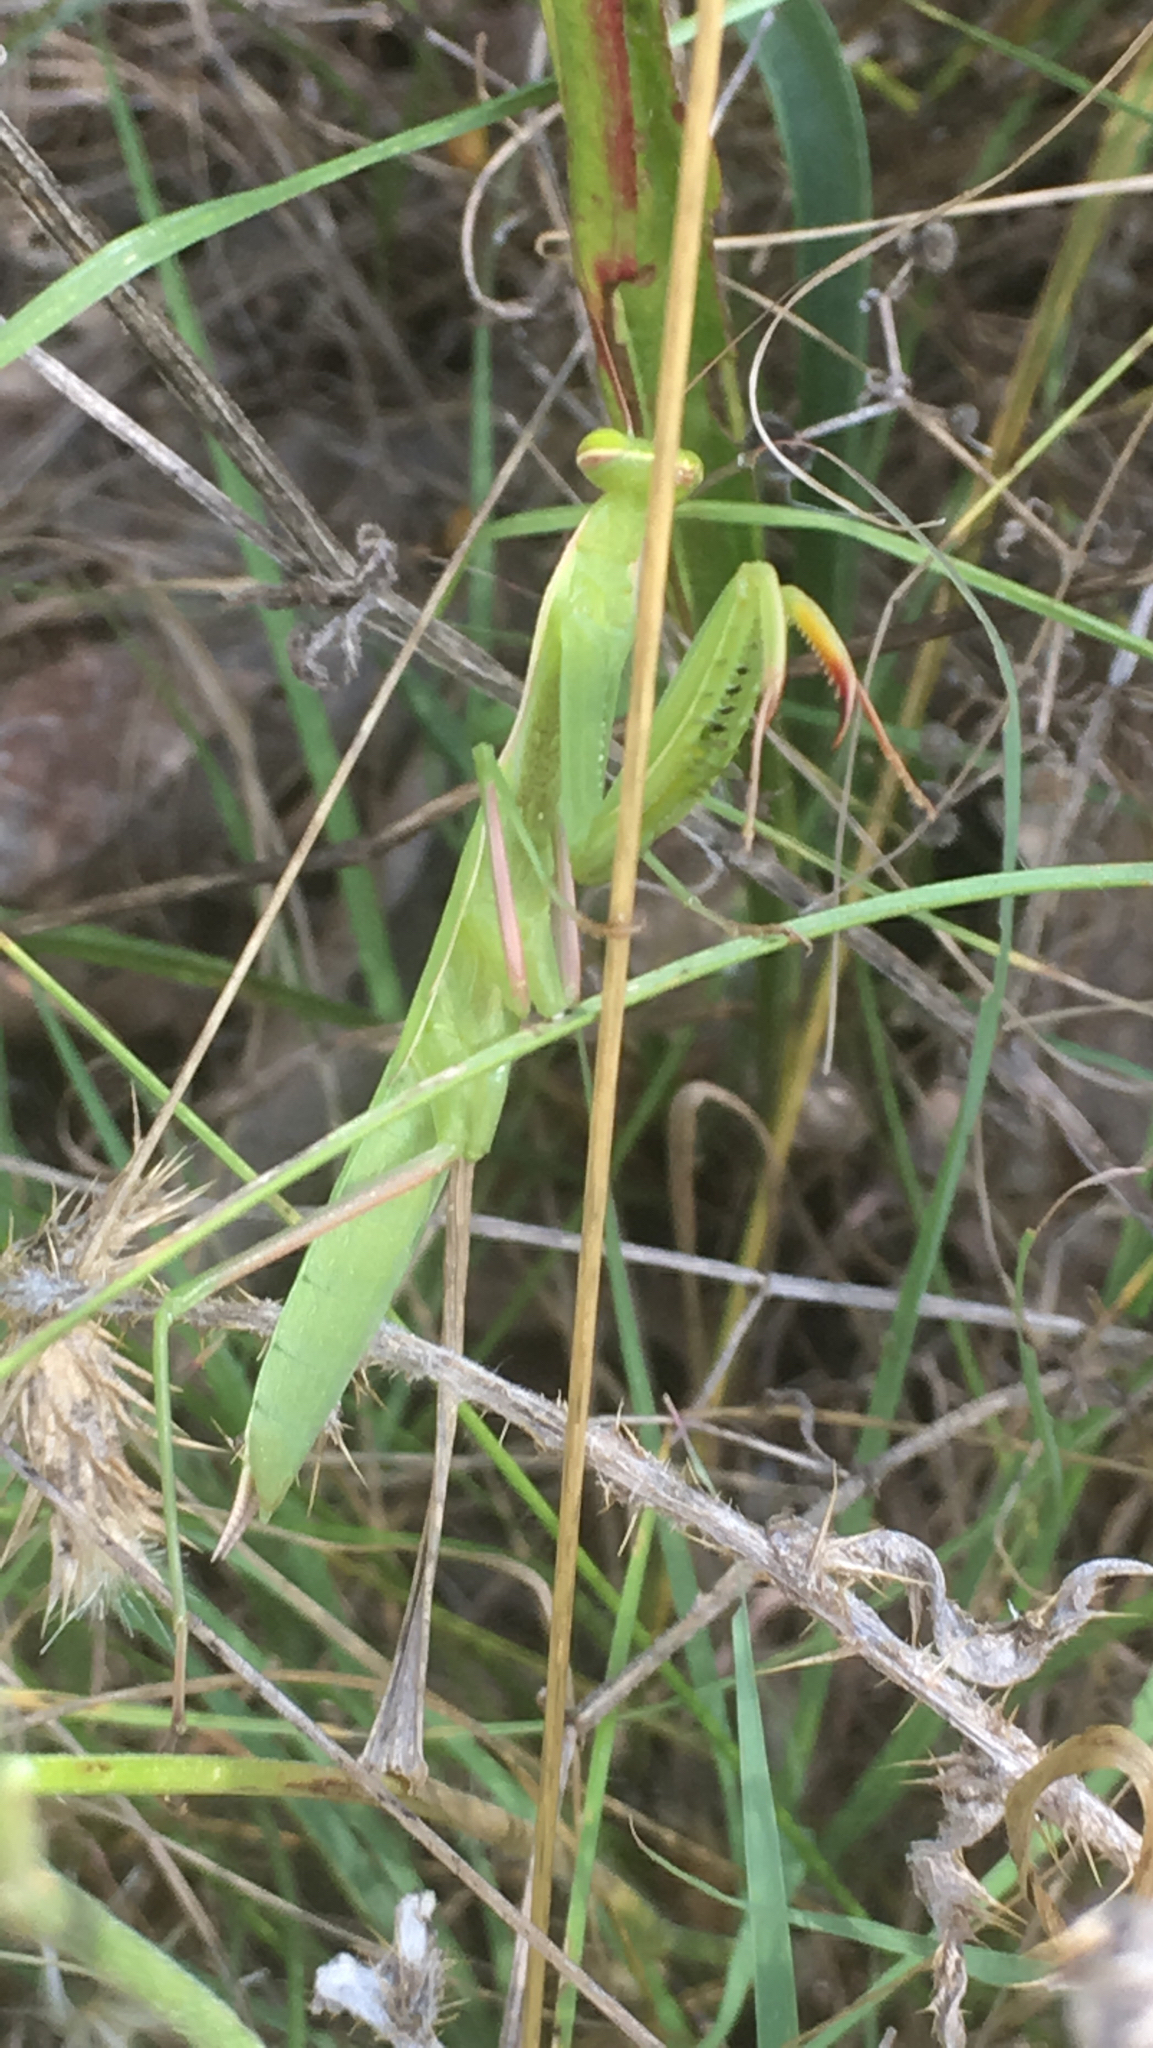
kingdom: Animalia
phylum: Arthropoda
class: Insecta
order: Mantodea
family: Mantidae
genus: Mantis
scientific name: Mantis religiosa
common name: Praying mantis
